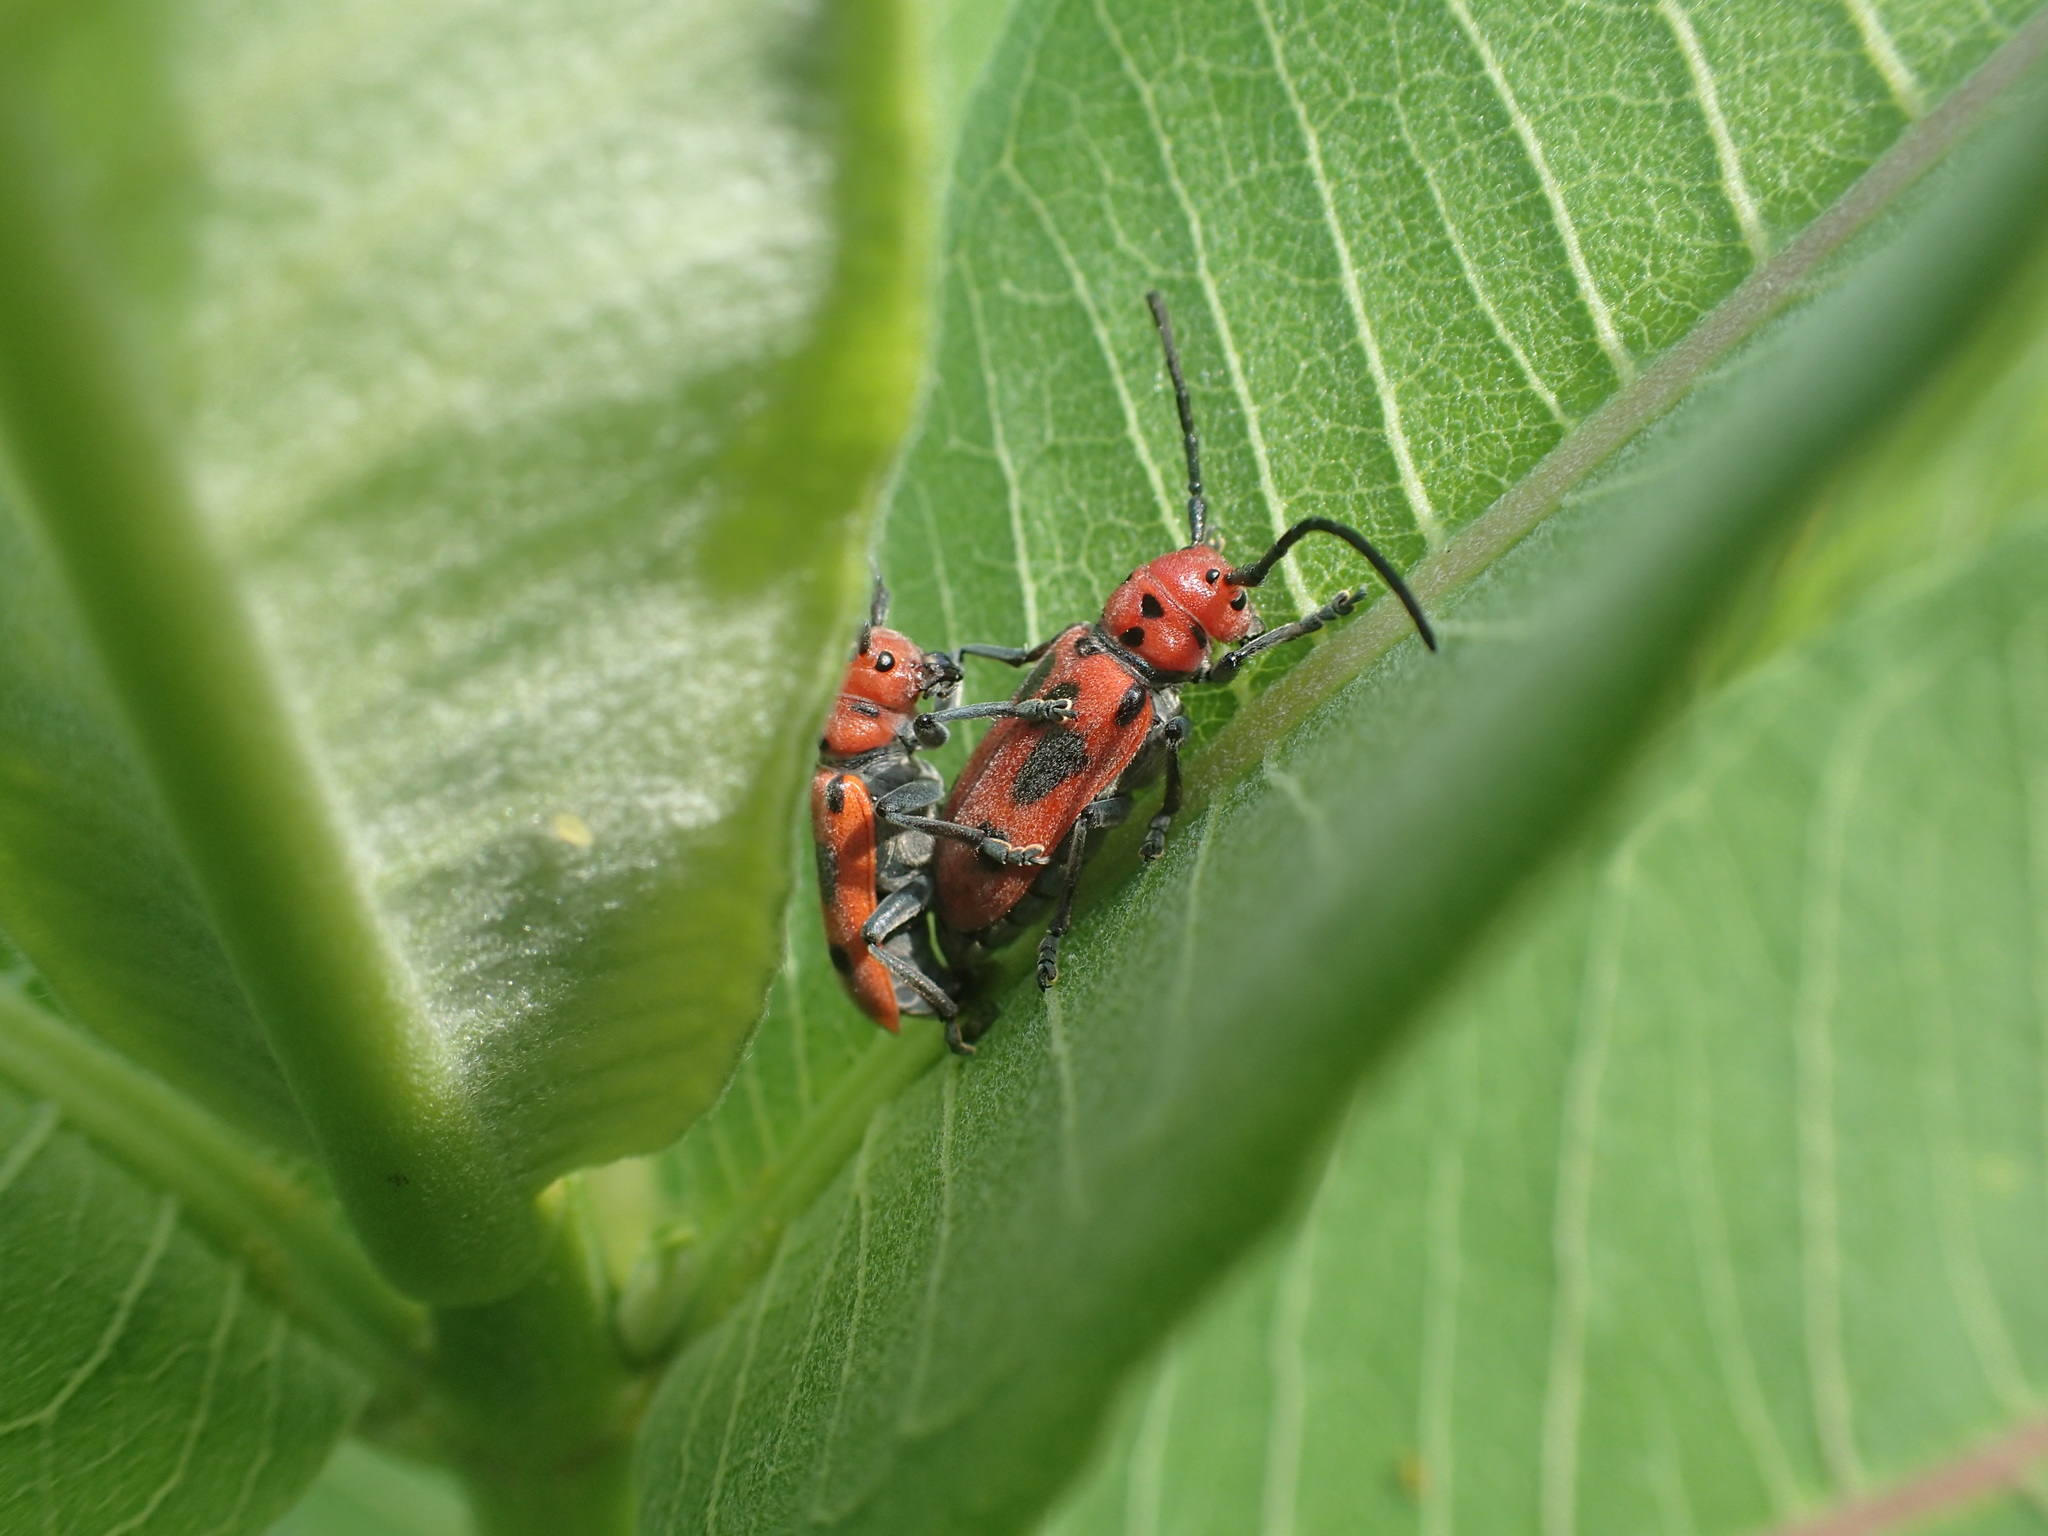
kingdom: Animalia
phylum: Arthropoda
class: Insecta
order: Coleoptera
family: Cerambycidae
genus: Tetraopes
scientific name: Tetraopes tetrophthalmus
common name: Red milkweed beetle
